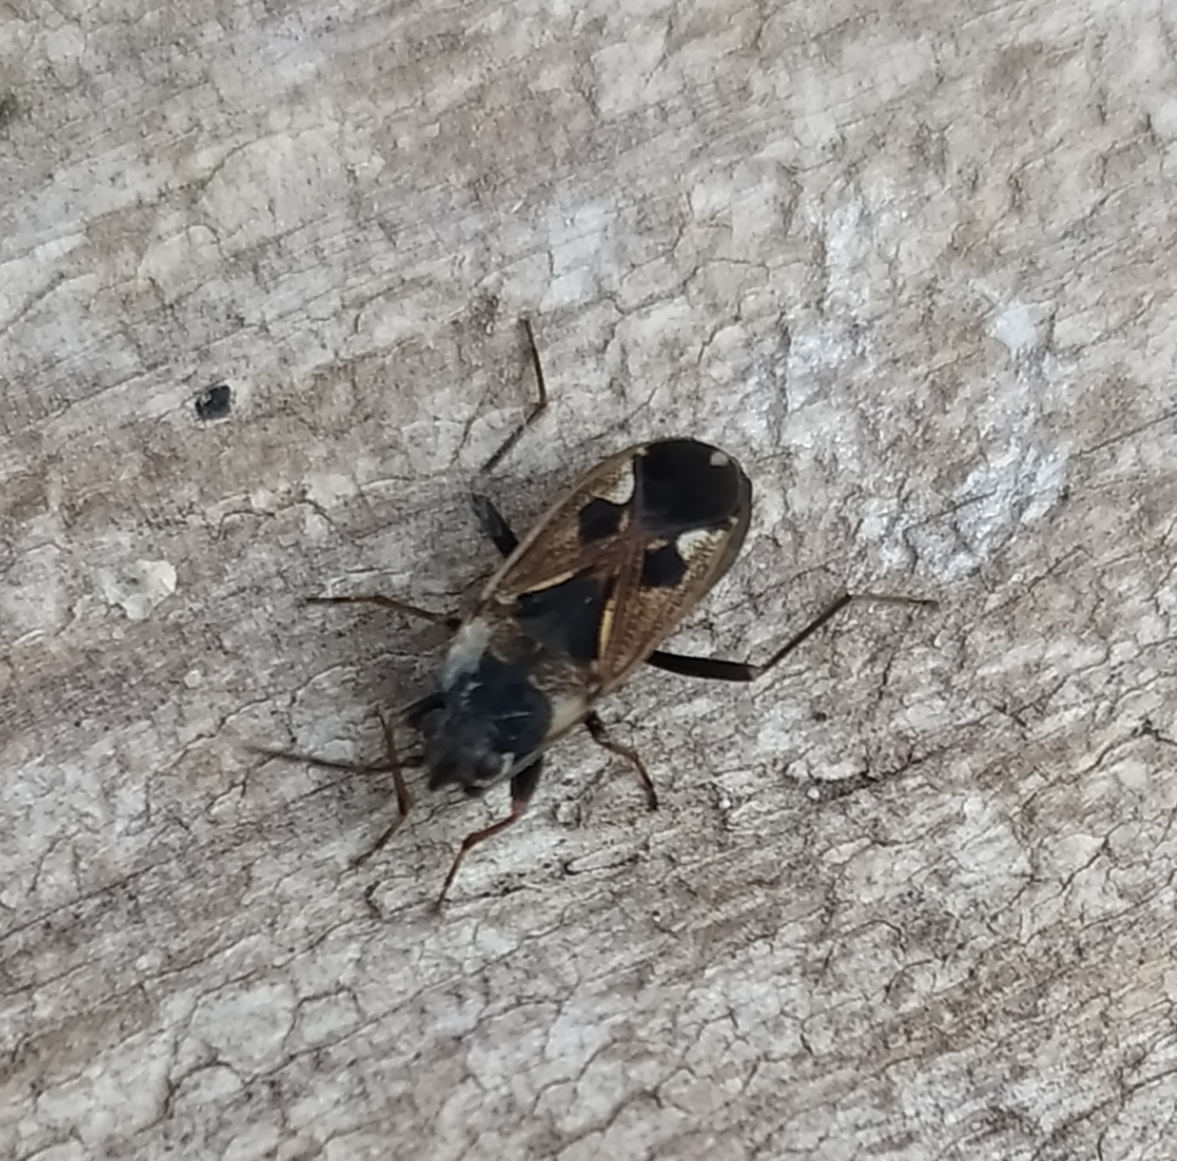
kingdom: Animalia
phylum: Arthropoda
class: Insecta
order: Hemiptera
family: Rhyparochromidae
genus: Rhyparochromus
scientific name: Rhyparochromus vulgaris
